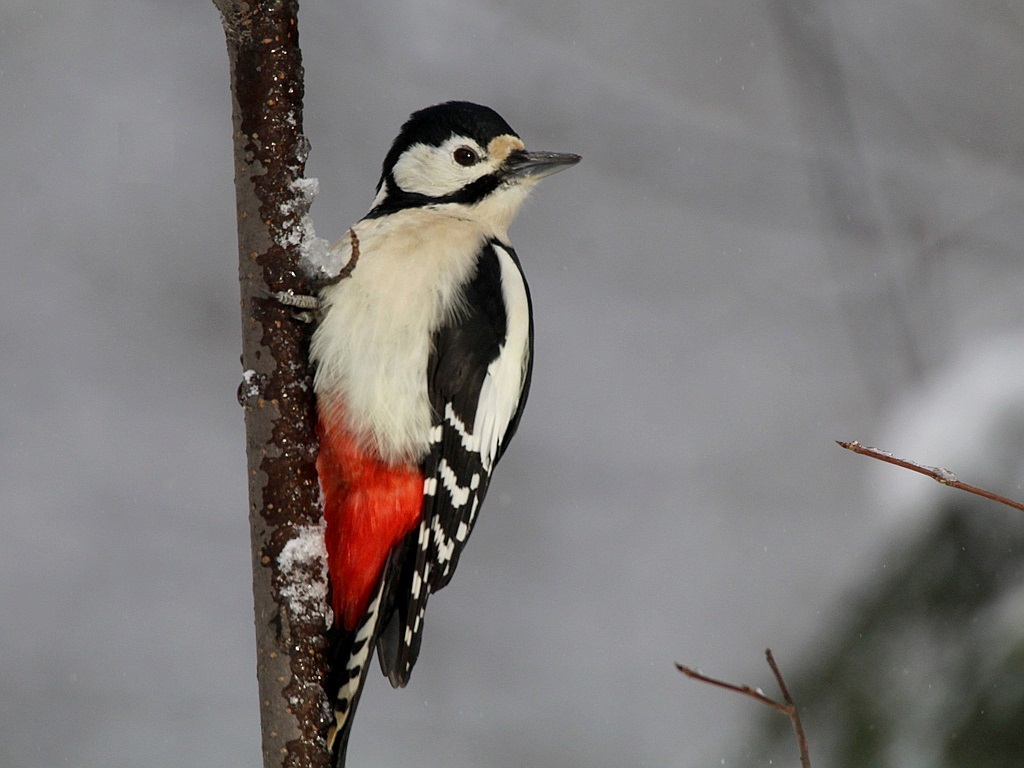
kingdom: Animalia
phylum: Chordata
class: Aves
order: Piciformes
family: Picidae
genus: Dendrocopos
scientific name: Dendrocopos major
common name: Great spotted woodpecker
